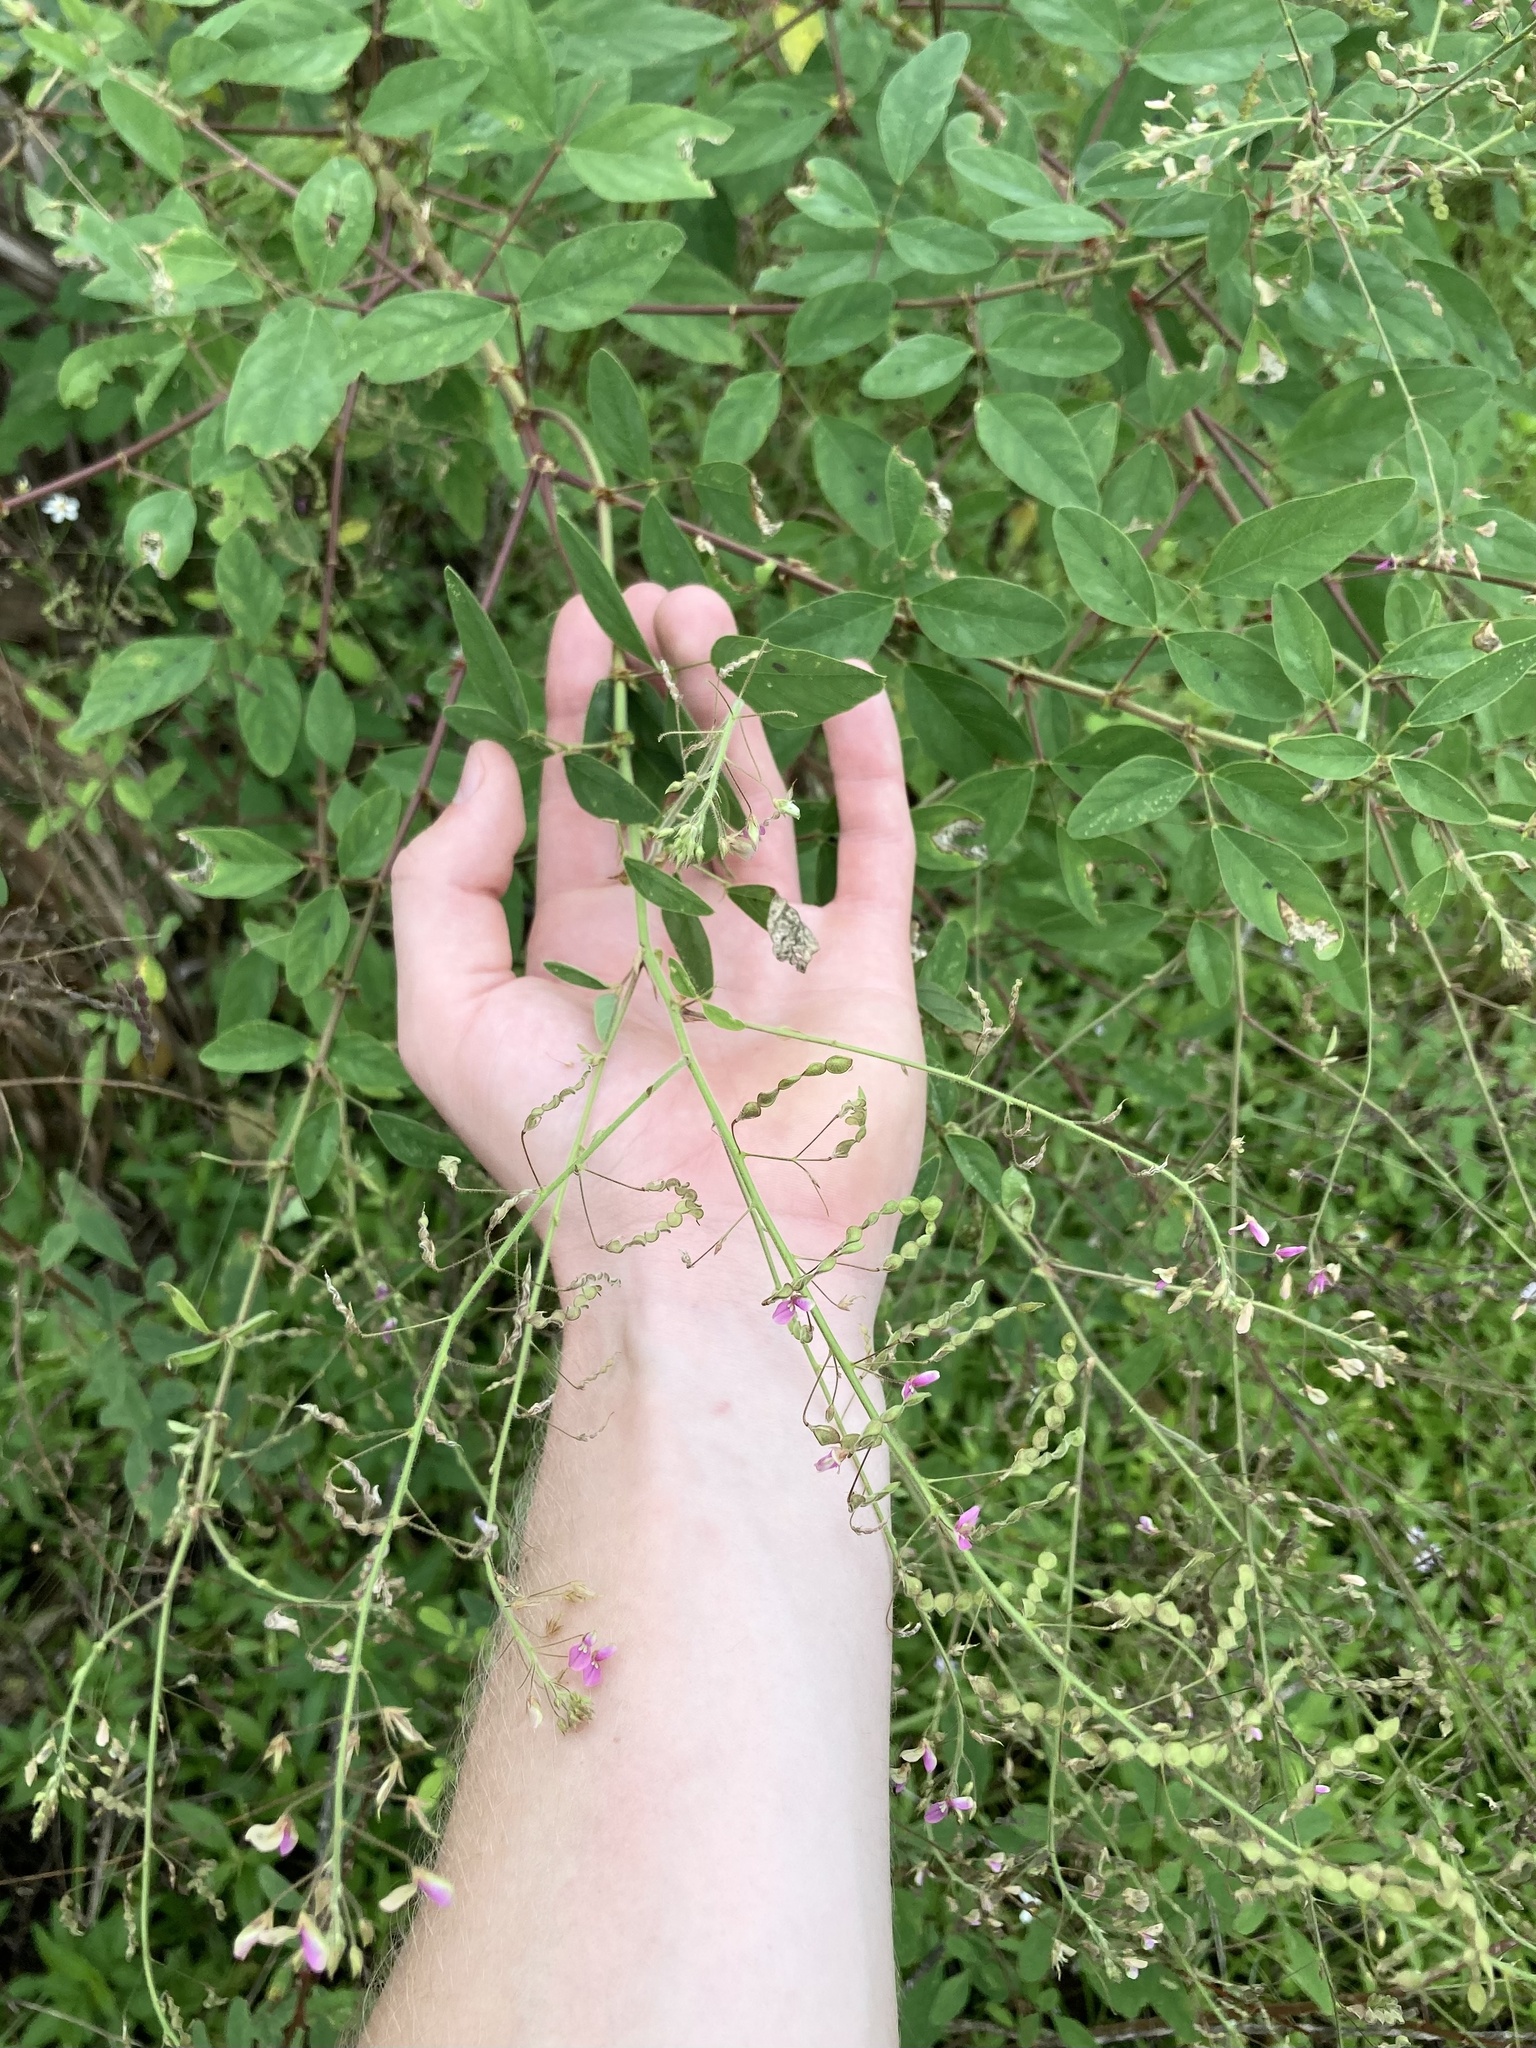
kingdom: Plantae
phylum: Tracheophyta
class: Magnoliopsida
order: Fabales
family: Fabaceae
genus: Desmodium
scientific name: Desmodium tortuosum
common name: Dixie ticktrefoil
